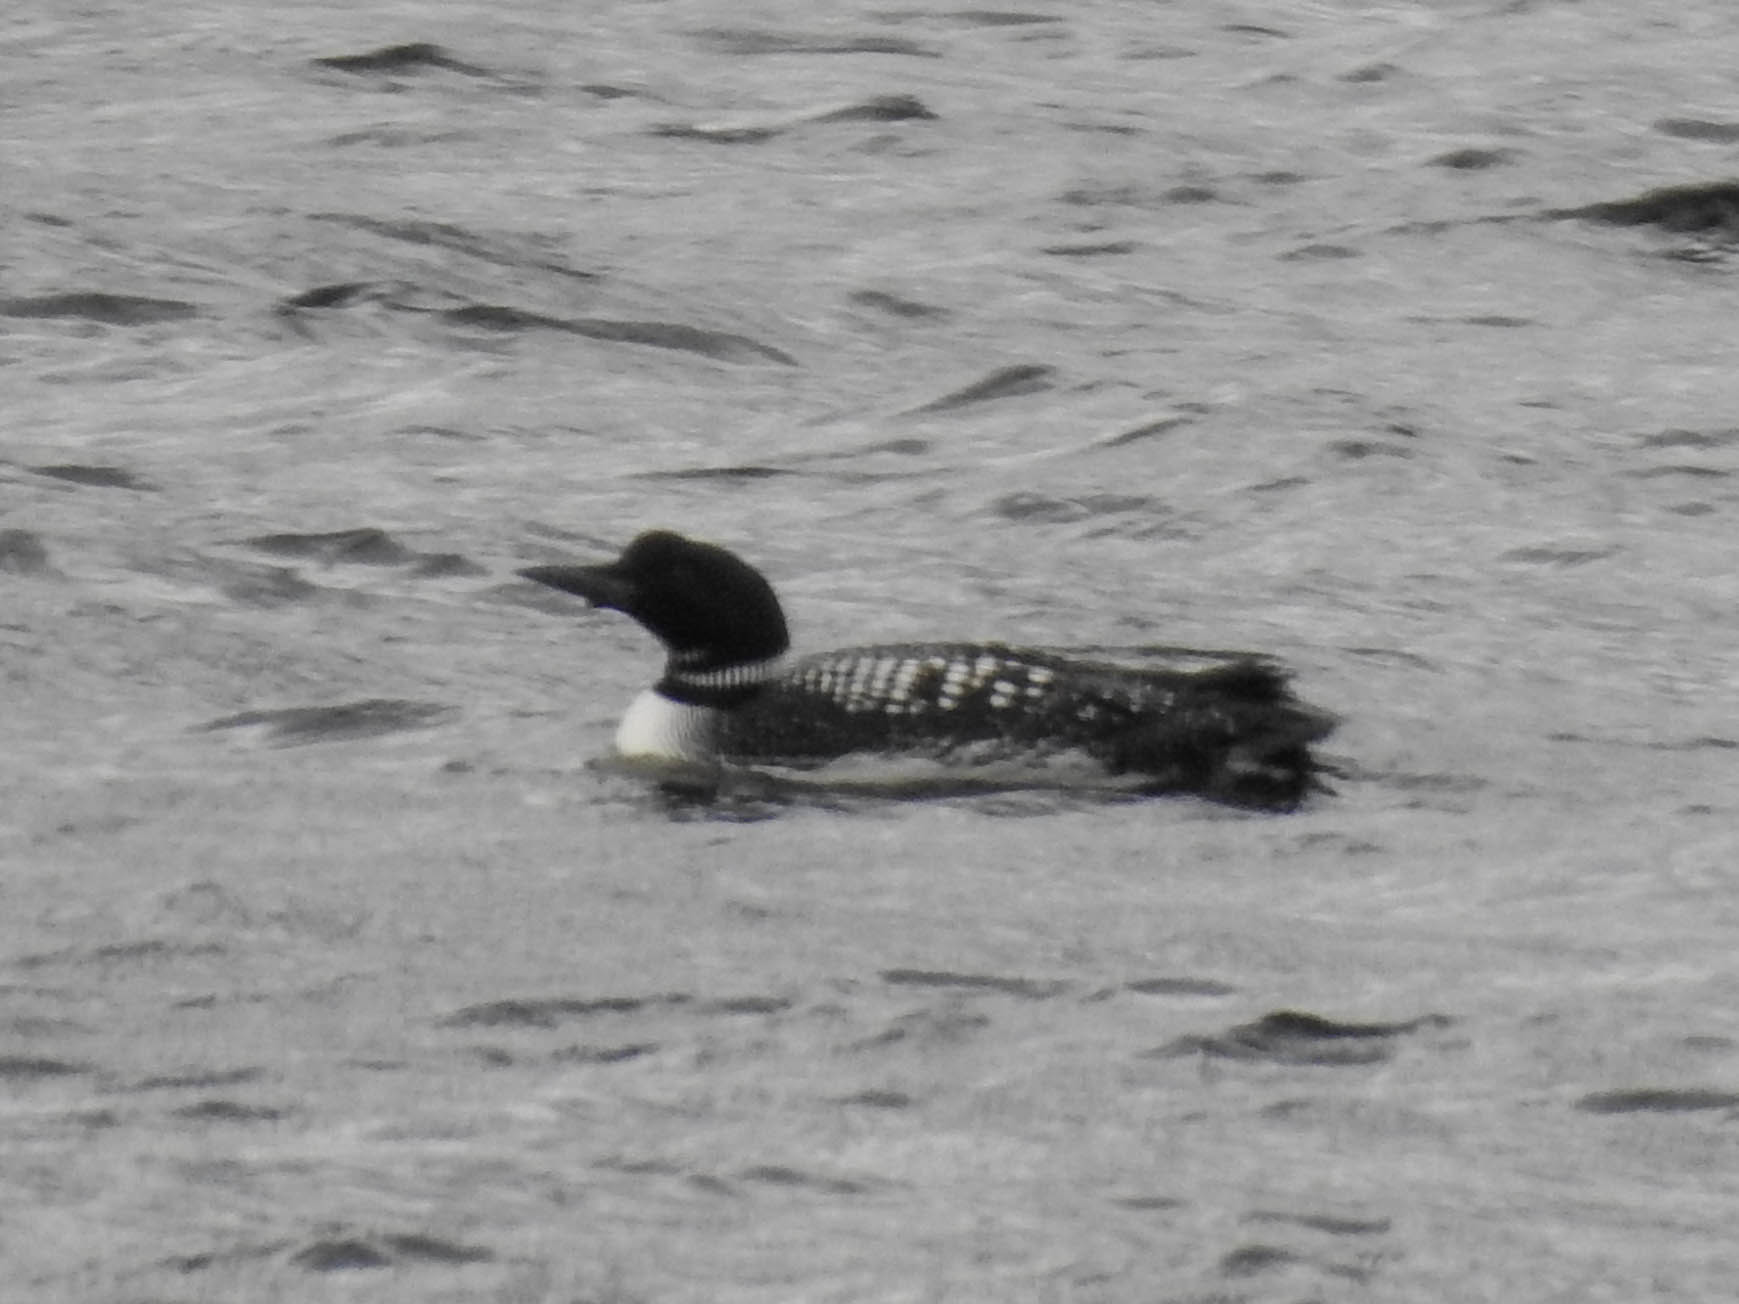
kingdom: Animalia
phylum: Chordata
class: Aves
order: Gaviiformes
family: Gaviidae
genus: Gavia
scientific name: Gavia immer
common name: Common loon
